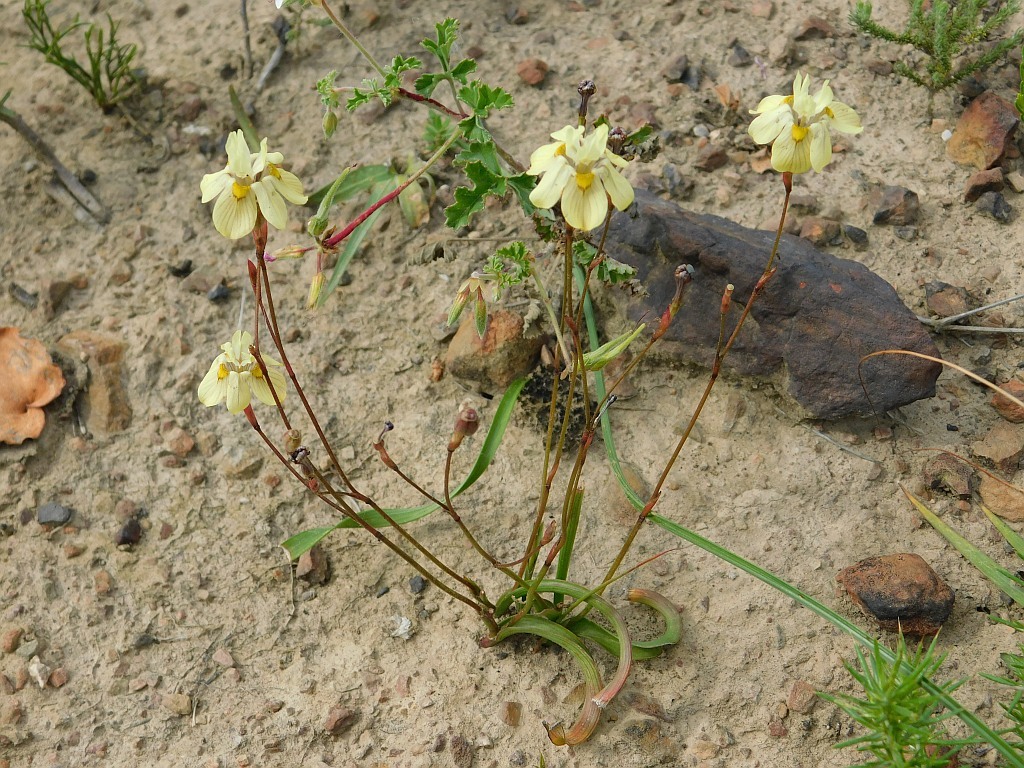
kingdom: Plantae
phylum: Tracheophyta
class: Liliopsida
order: Asparagales
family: Iridaceae
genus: Moraea
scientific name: Moraea gawleri
